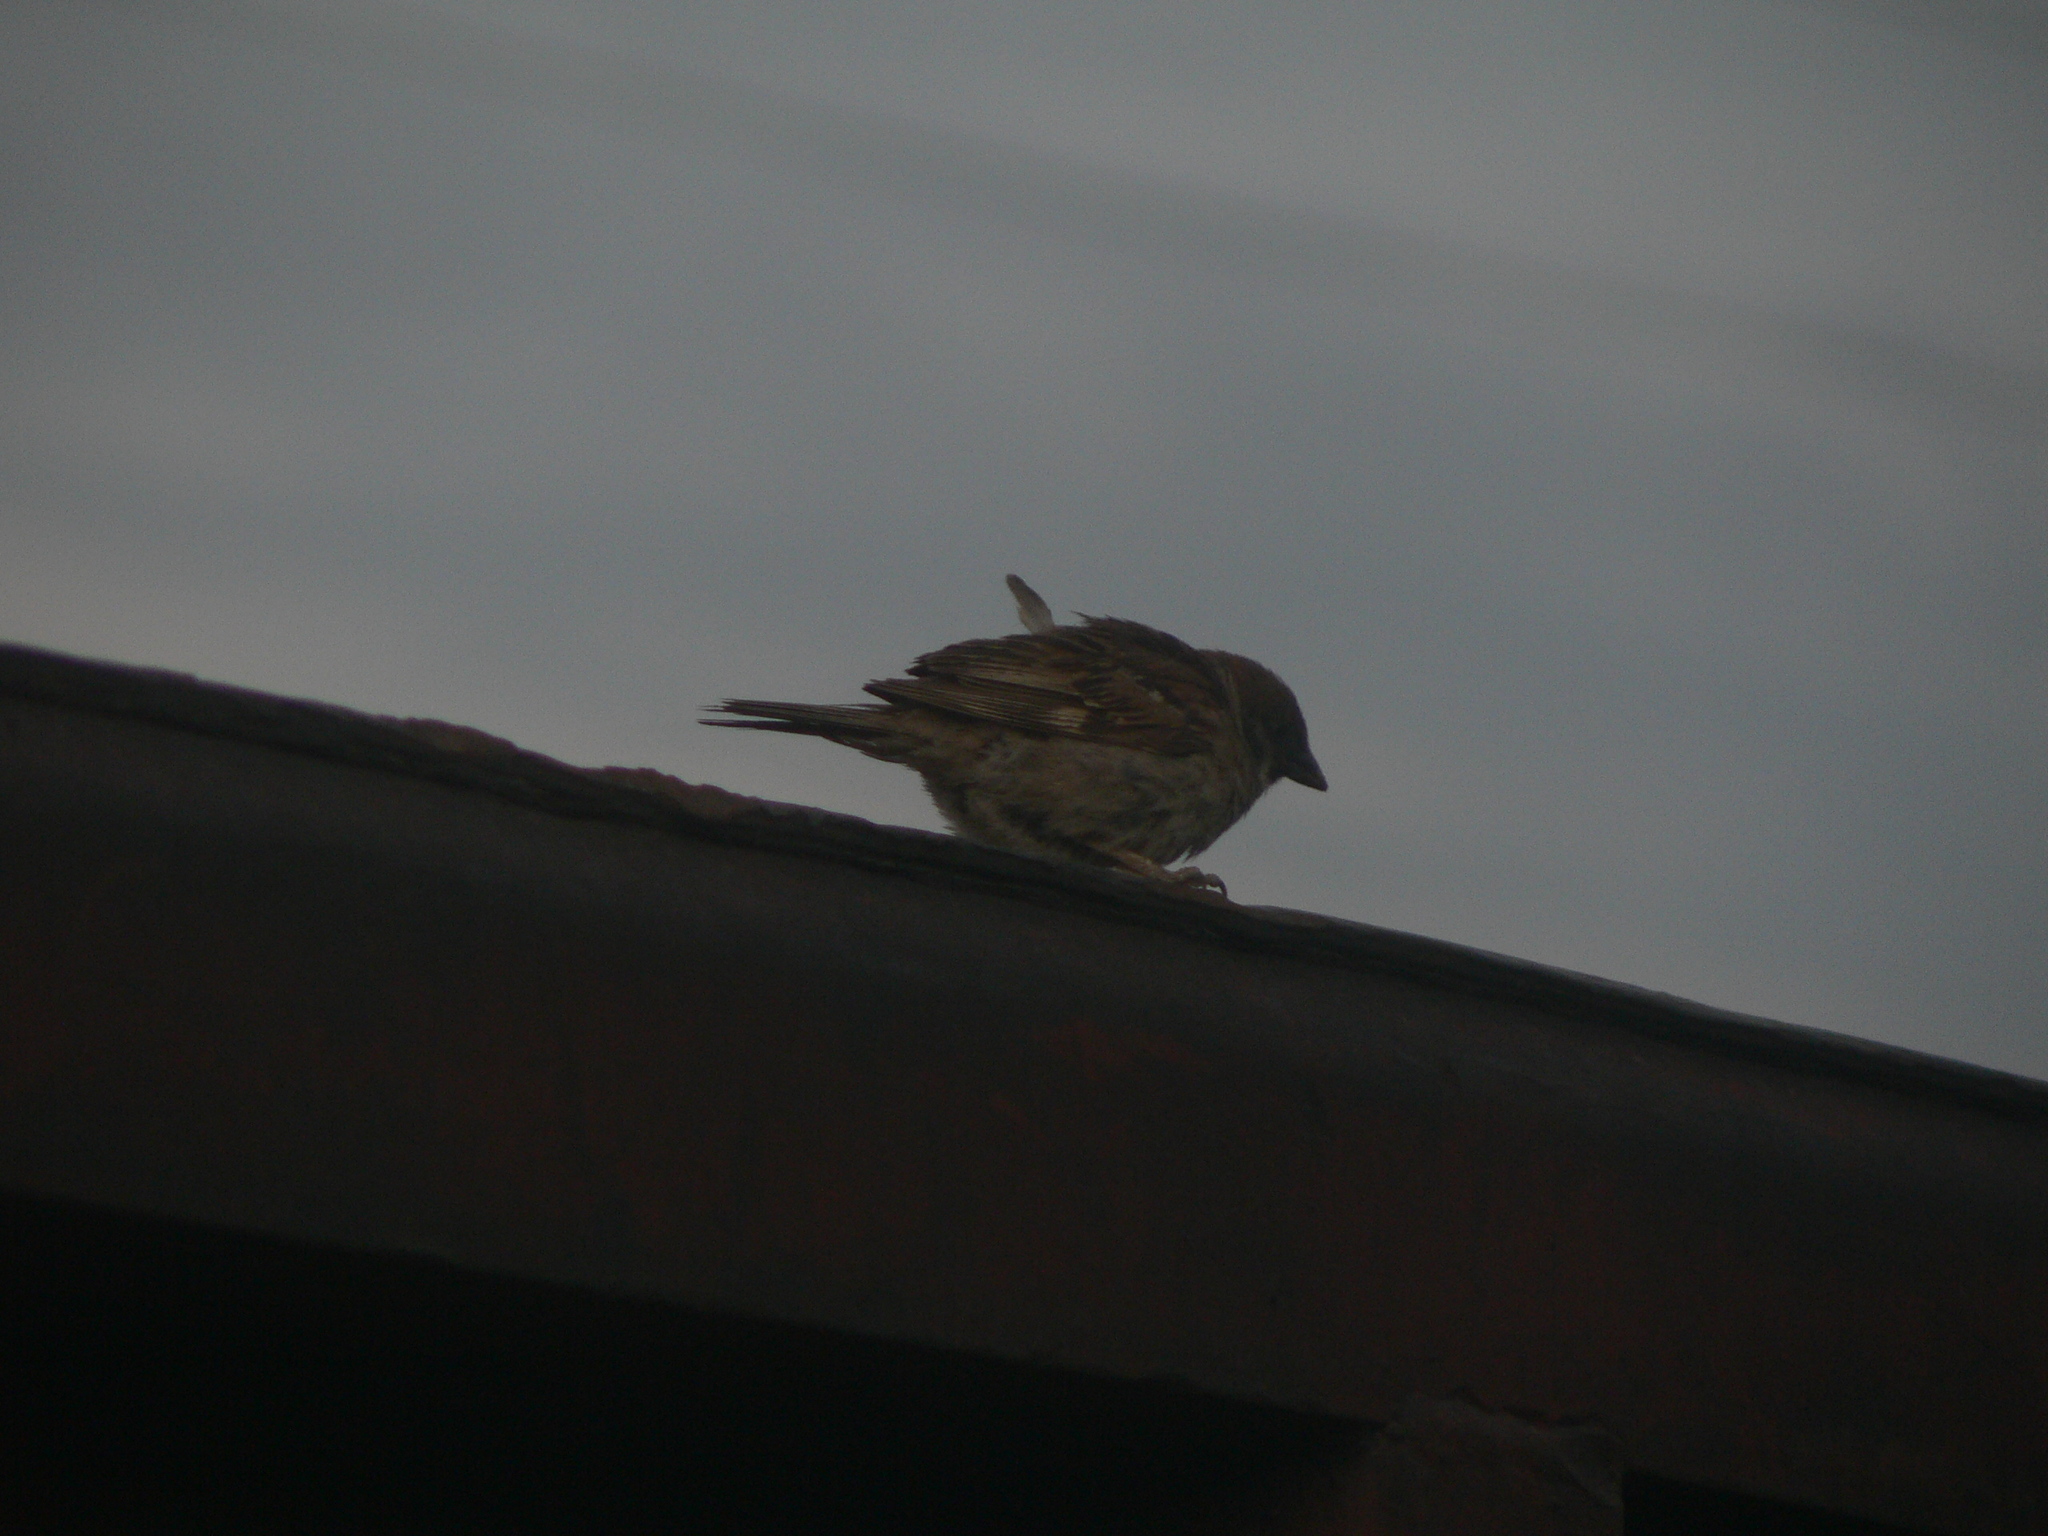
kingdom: Animalia
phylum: Chordata
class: Aves
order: Passeriformes
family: Passeridae
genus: Passer
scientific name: Passer montanus
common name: Eurasian tree sparrow
